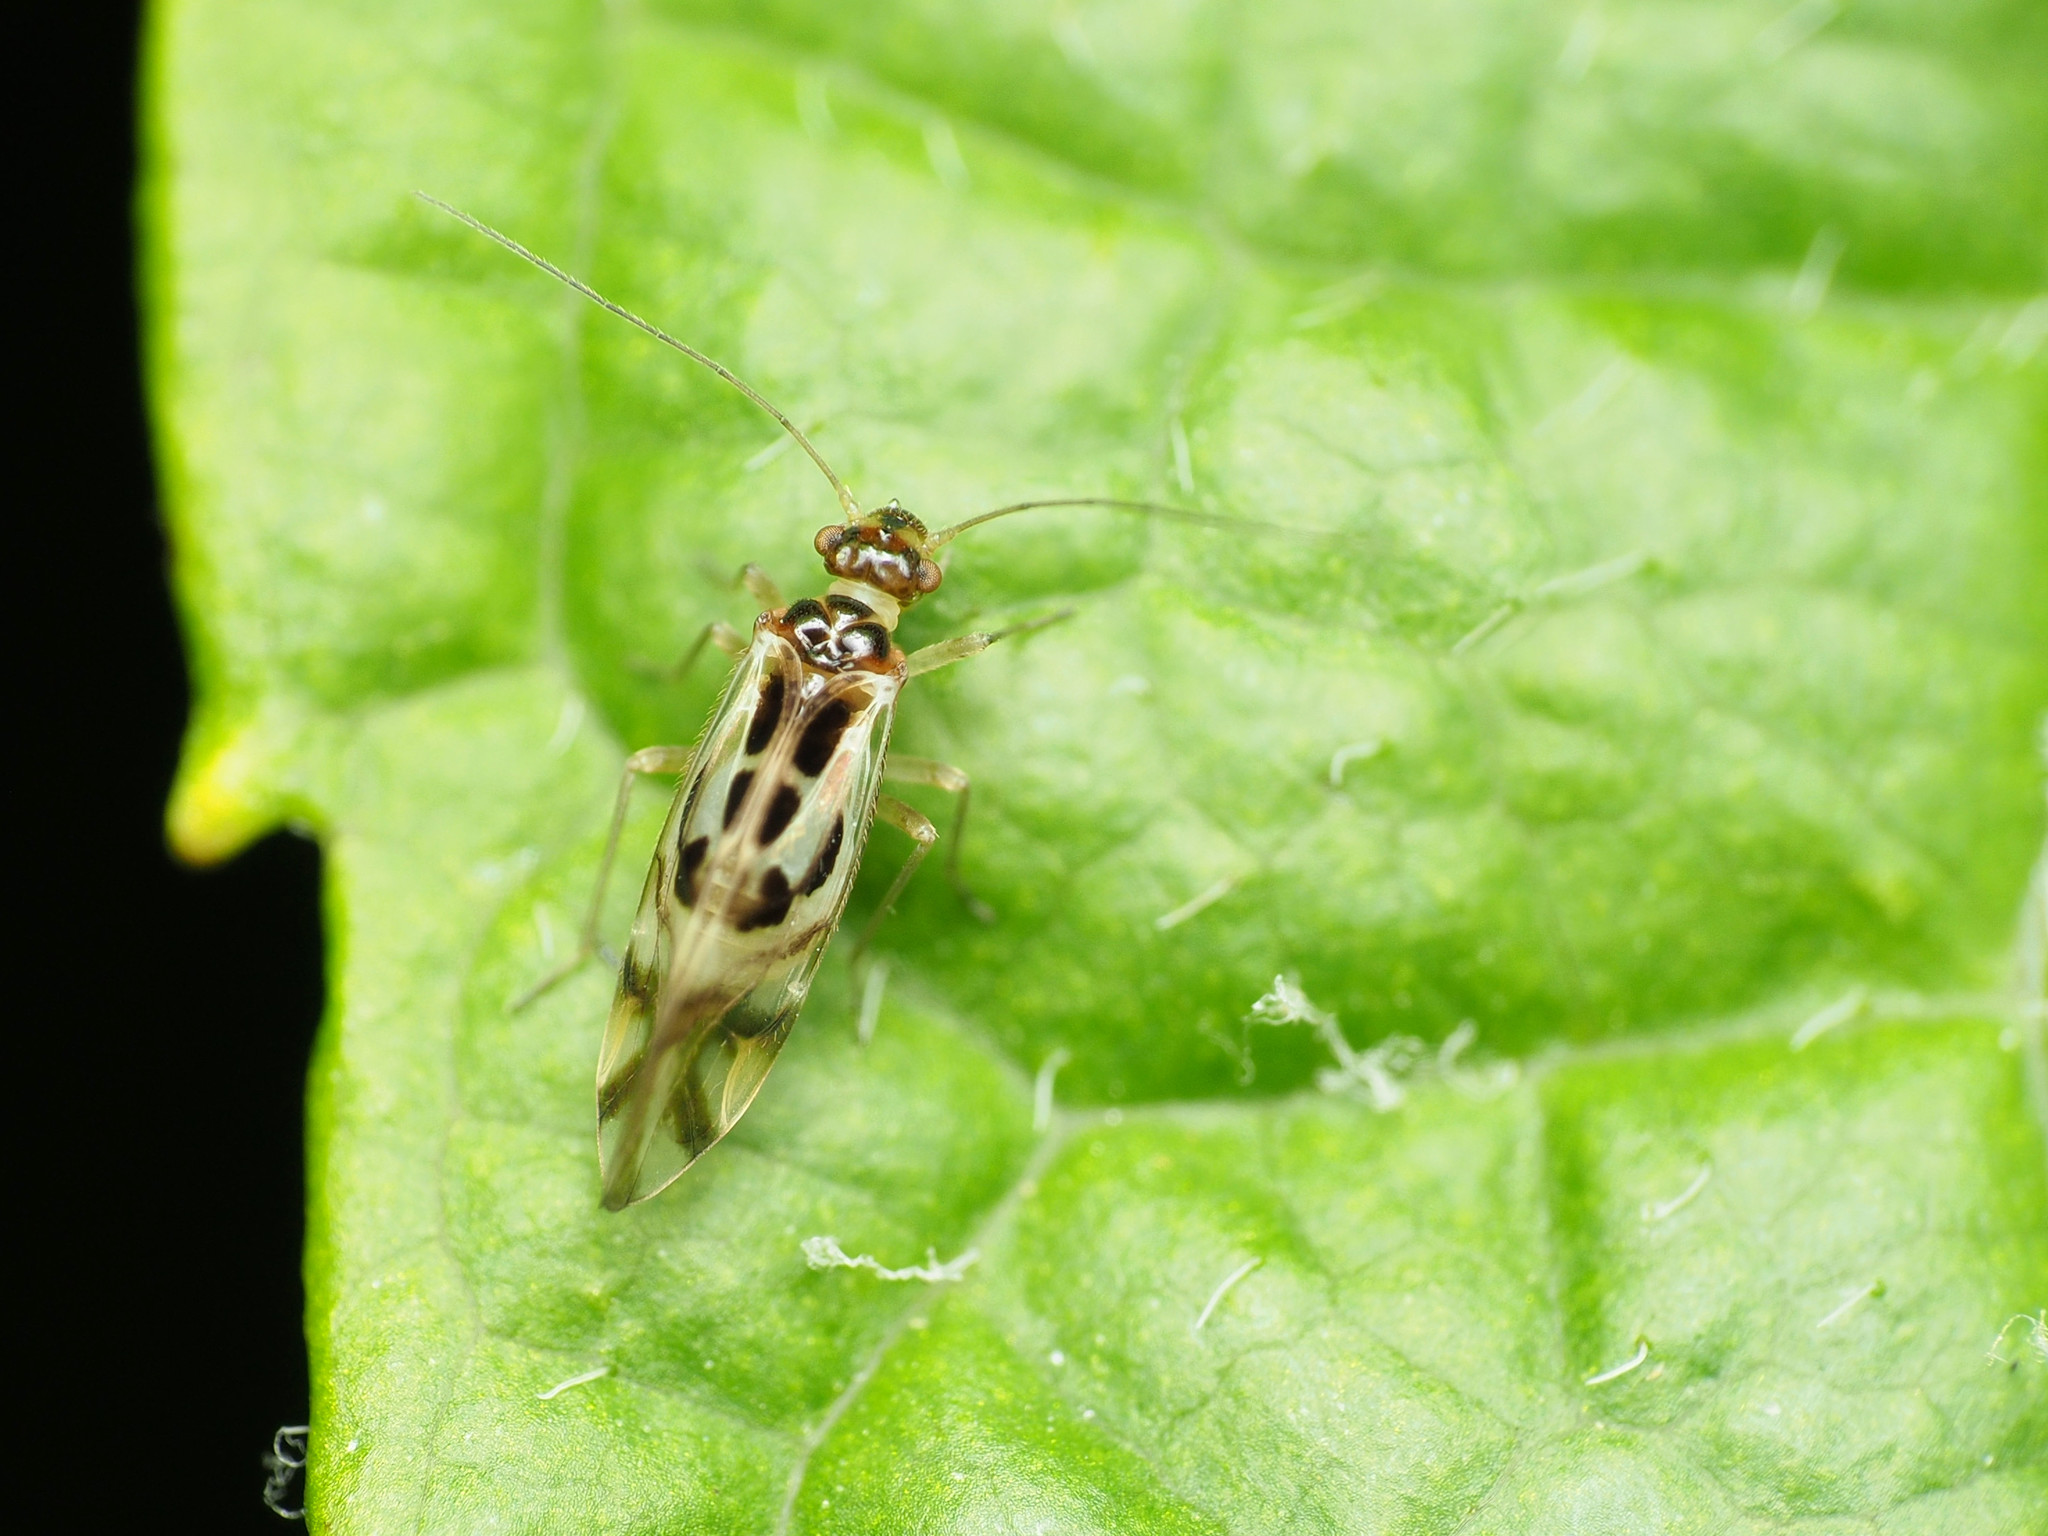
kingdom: Animalia
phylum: Arthropoda
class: Insecta
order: Psocodea
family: Stenopsocidae
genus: Graphopsocus
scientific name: Graphopsocus cruciatus
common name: Lizard bark louse
